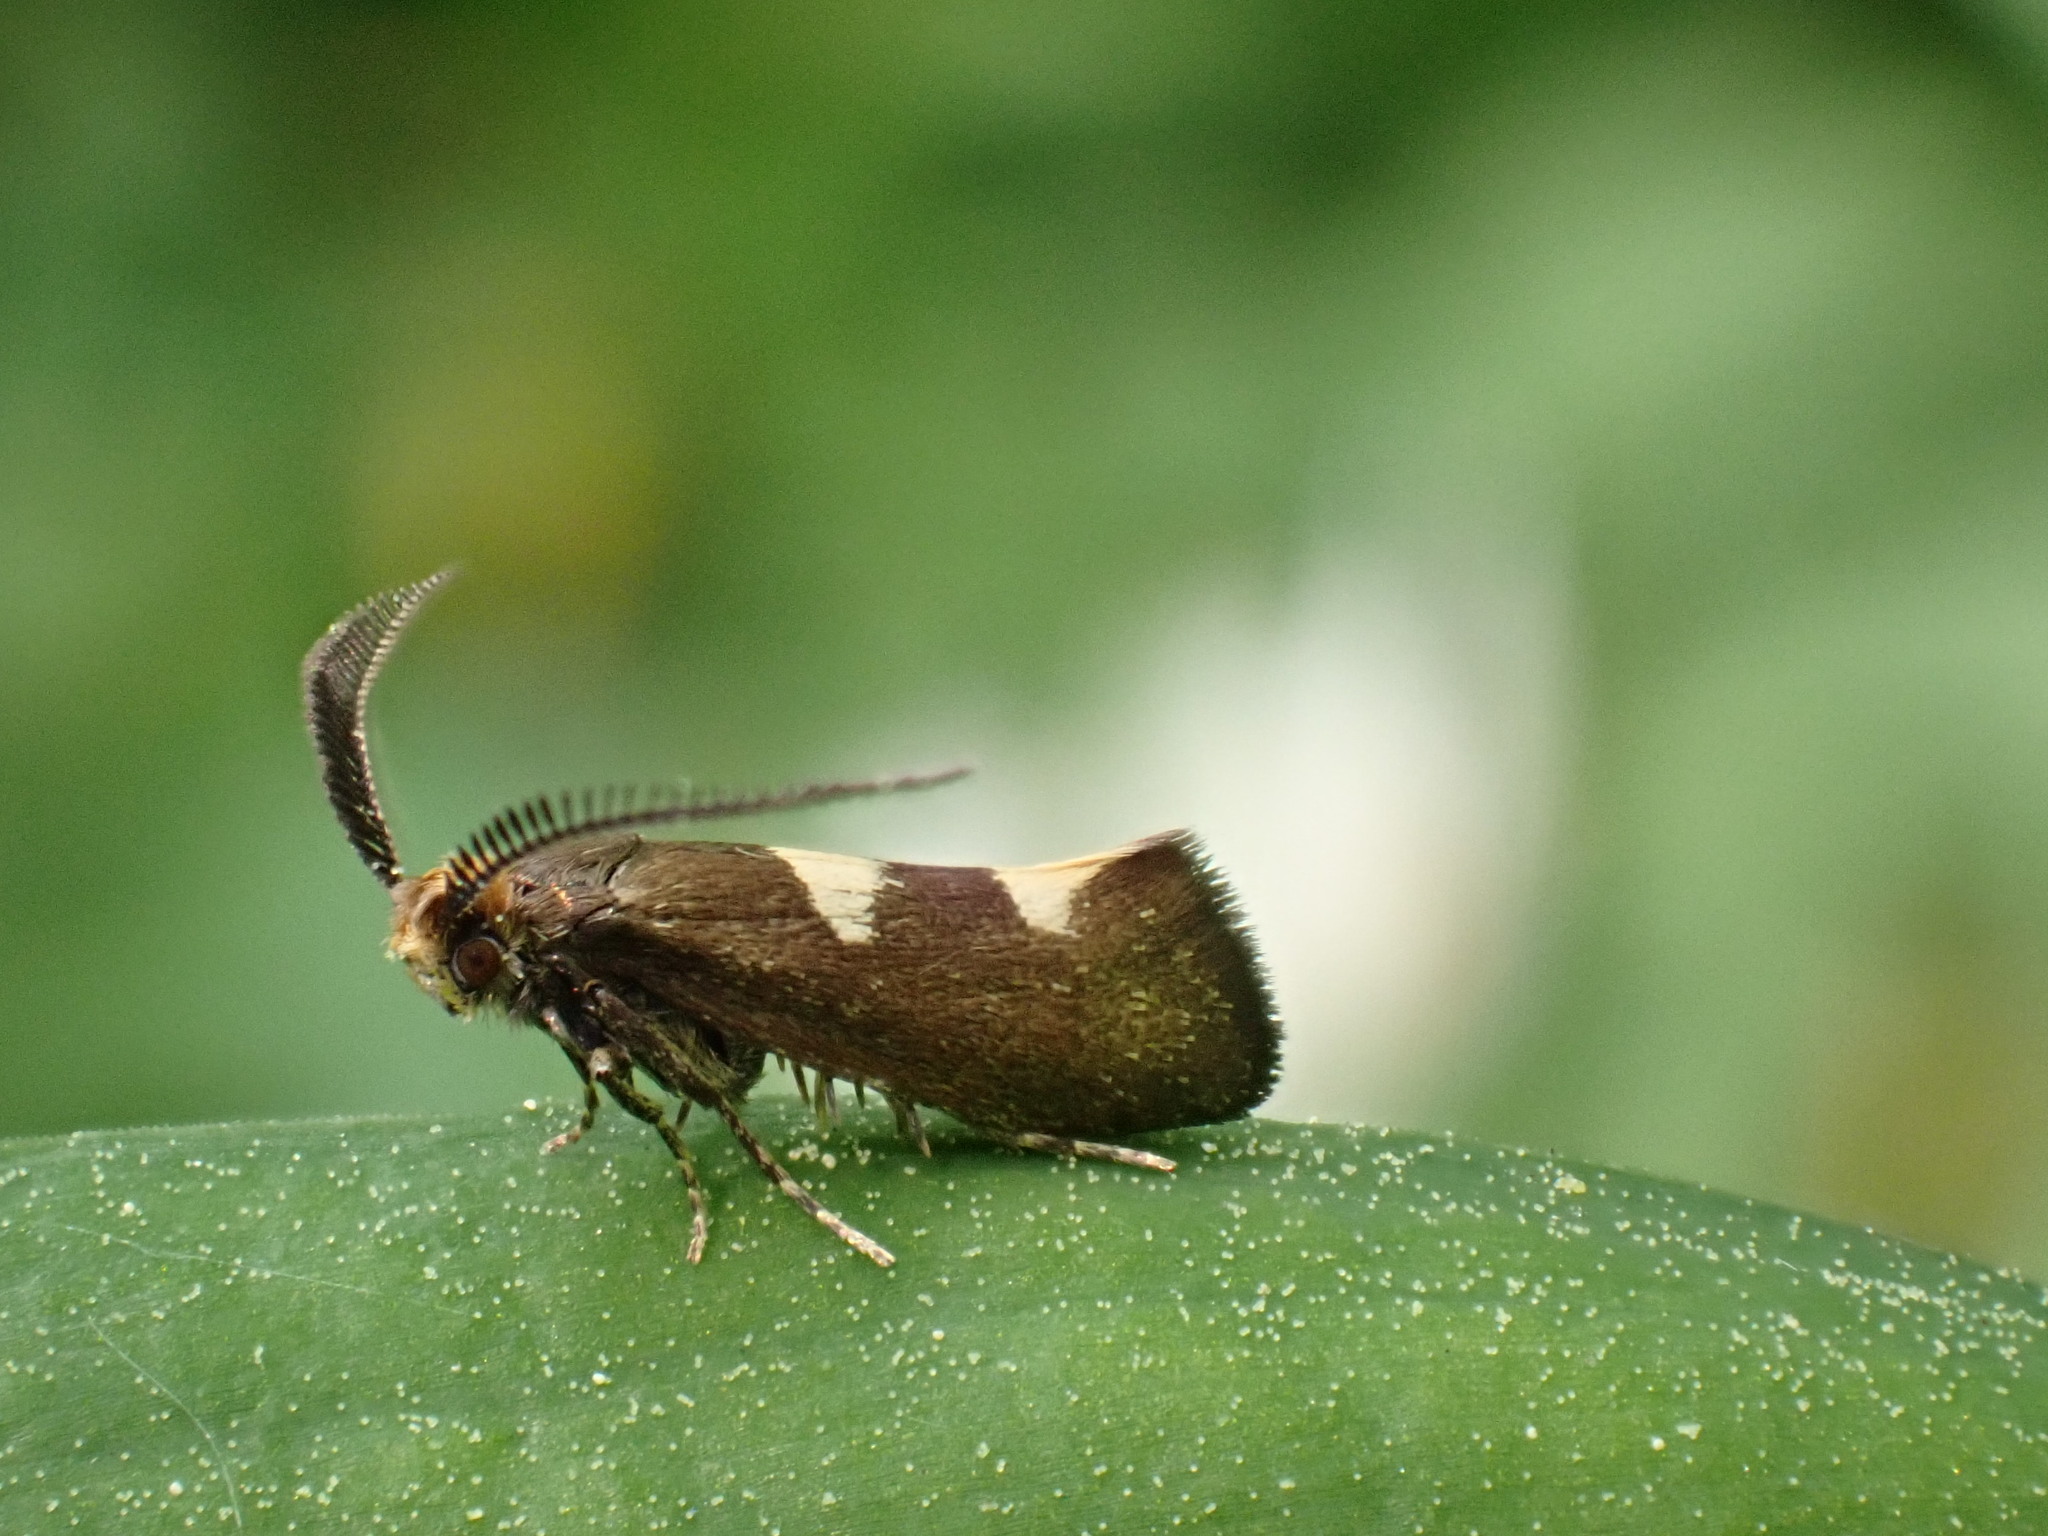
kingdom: Animalia
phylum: Arthropoda
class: Insecta
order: Lepidoptera
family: Incurvariidae
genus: Incurvaria
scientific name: Incurvaria masculella
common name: Feathered leaf-cutter
